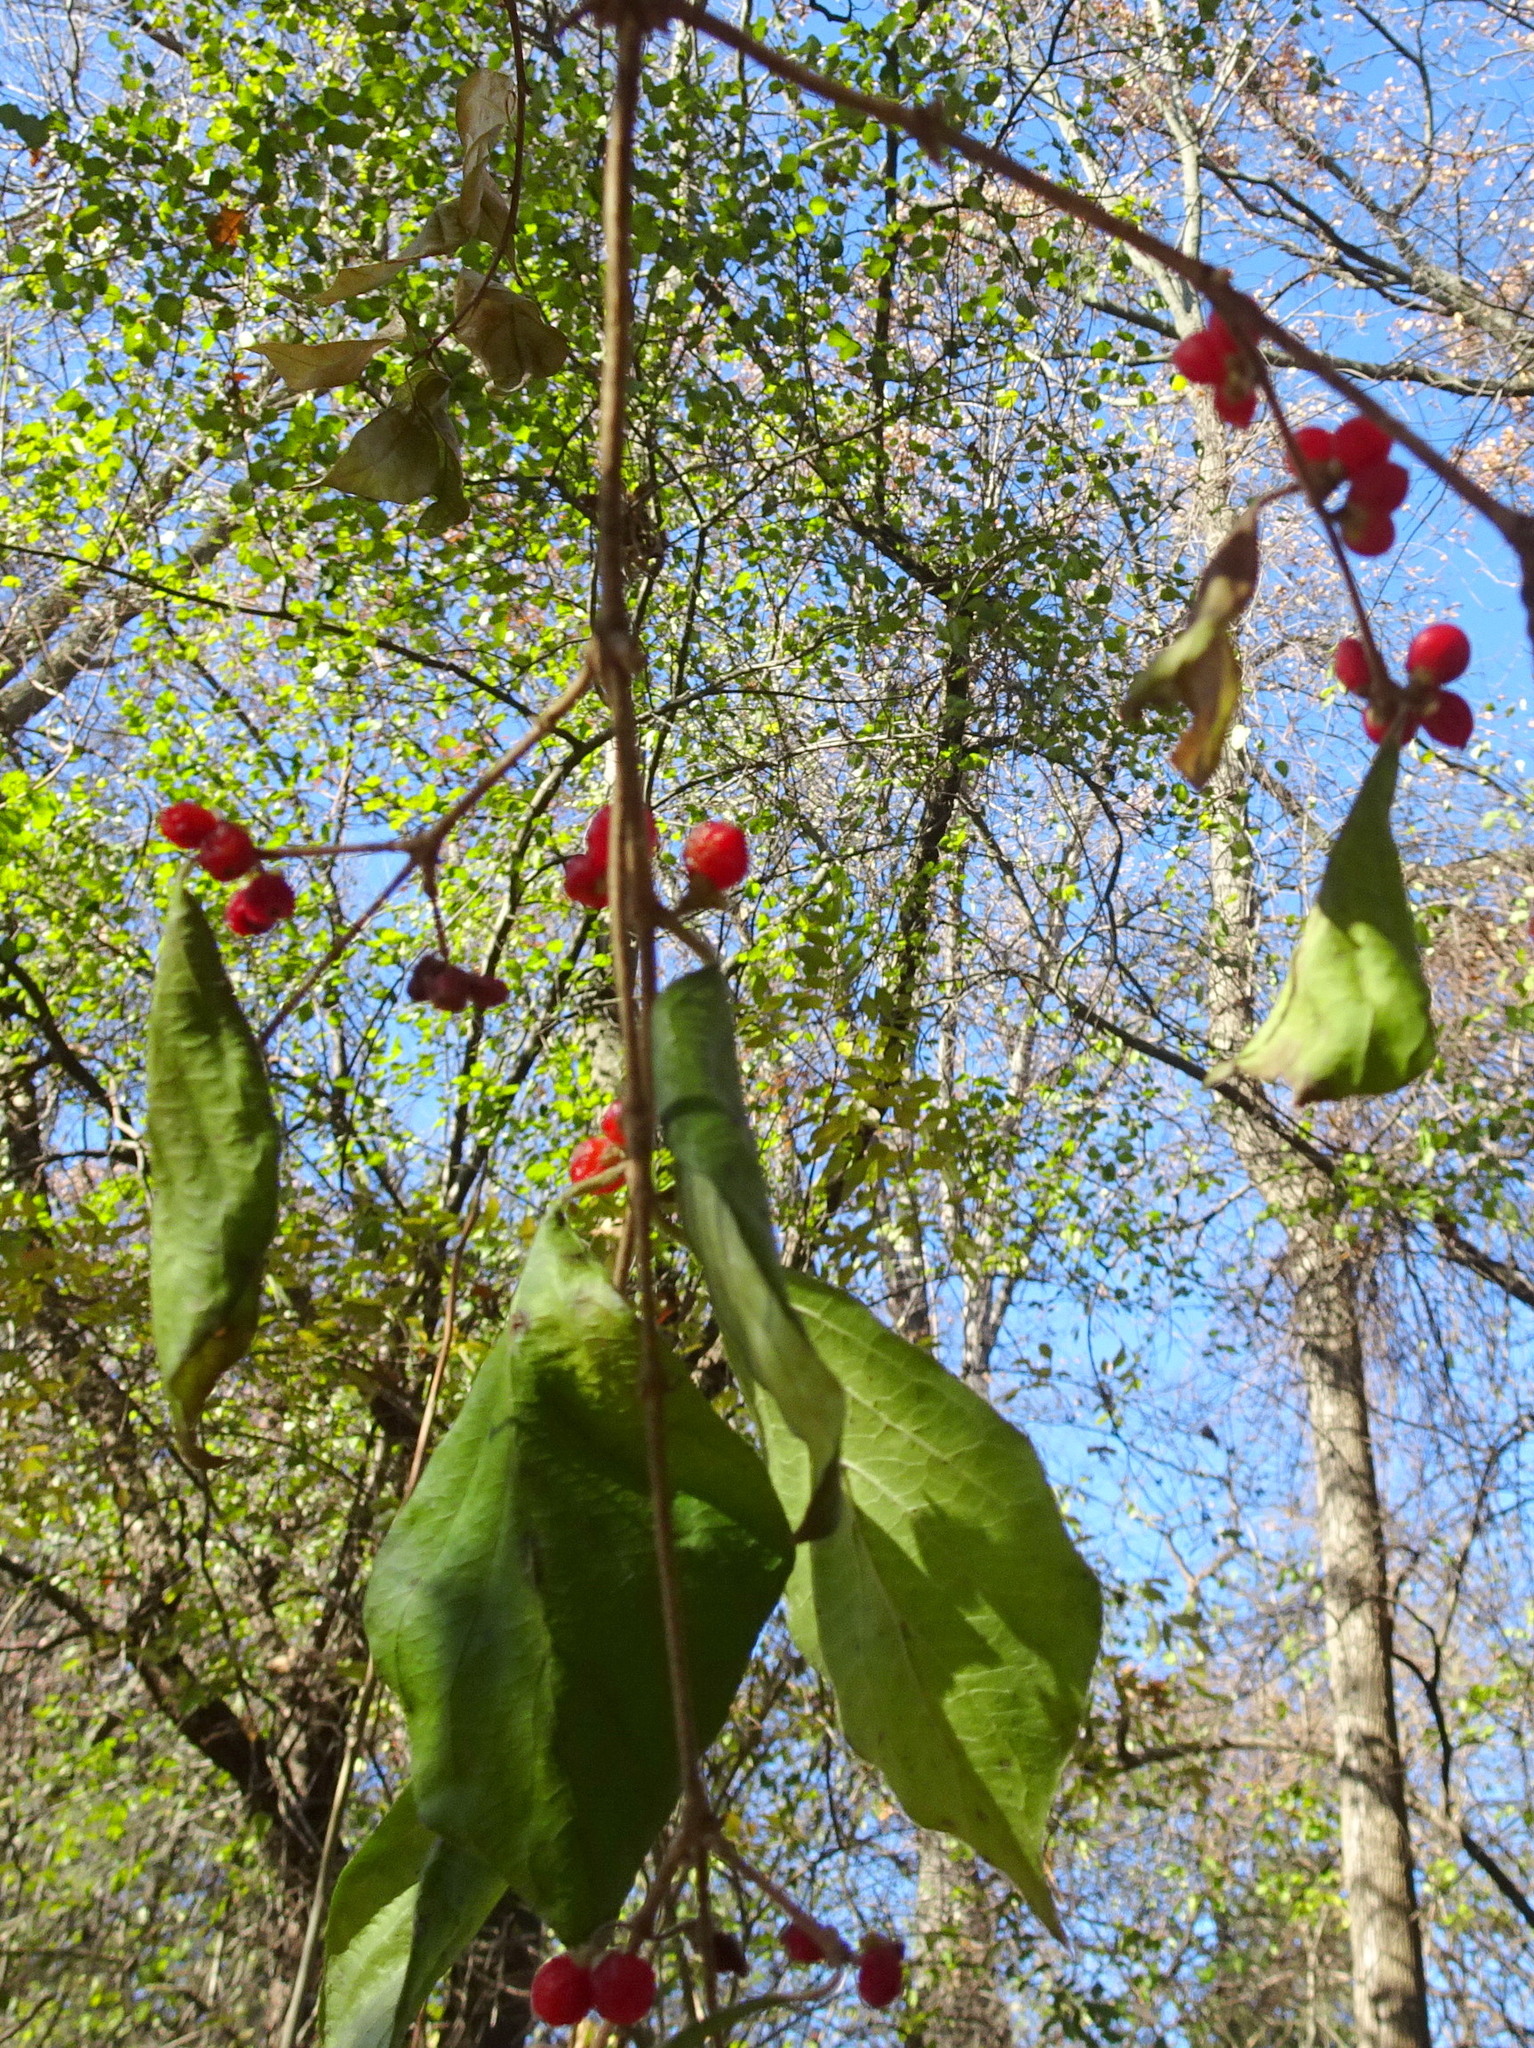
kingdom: Plantae
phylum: Tracheophyta
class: Magnoliopsida
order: Dipsacales
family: Caprifoliaceae
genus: Lonicera
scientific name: Lonicera maackii
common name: Amur honeysuckle
